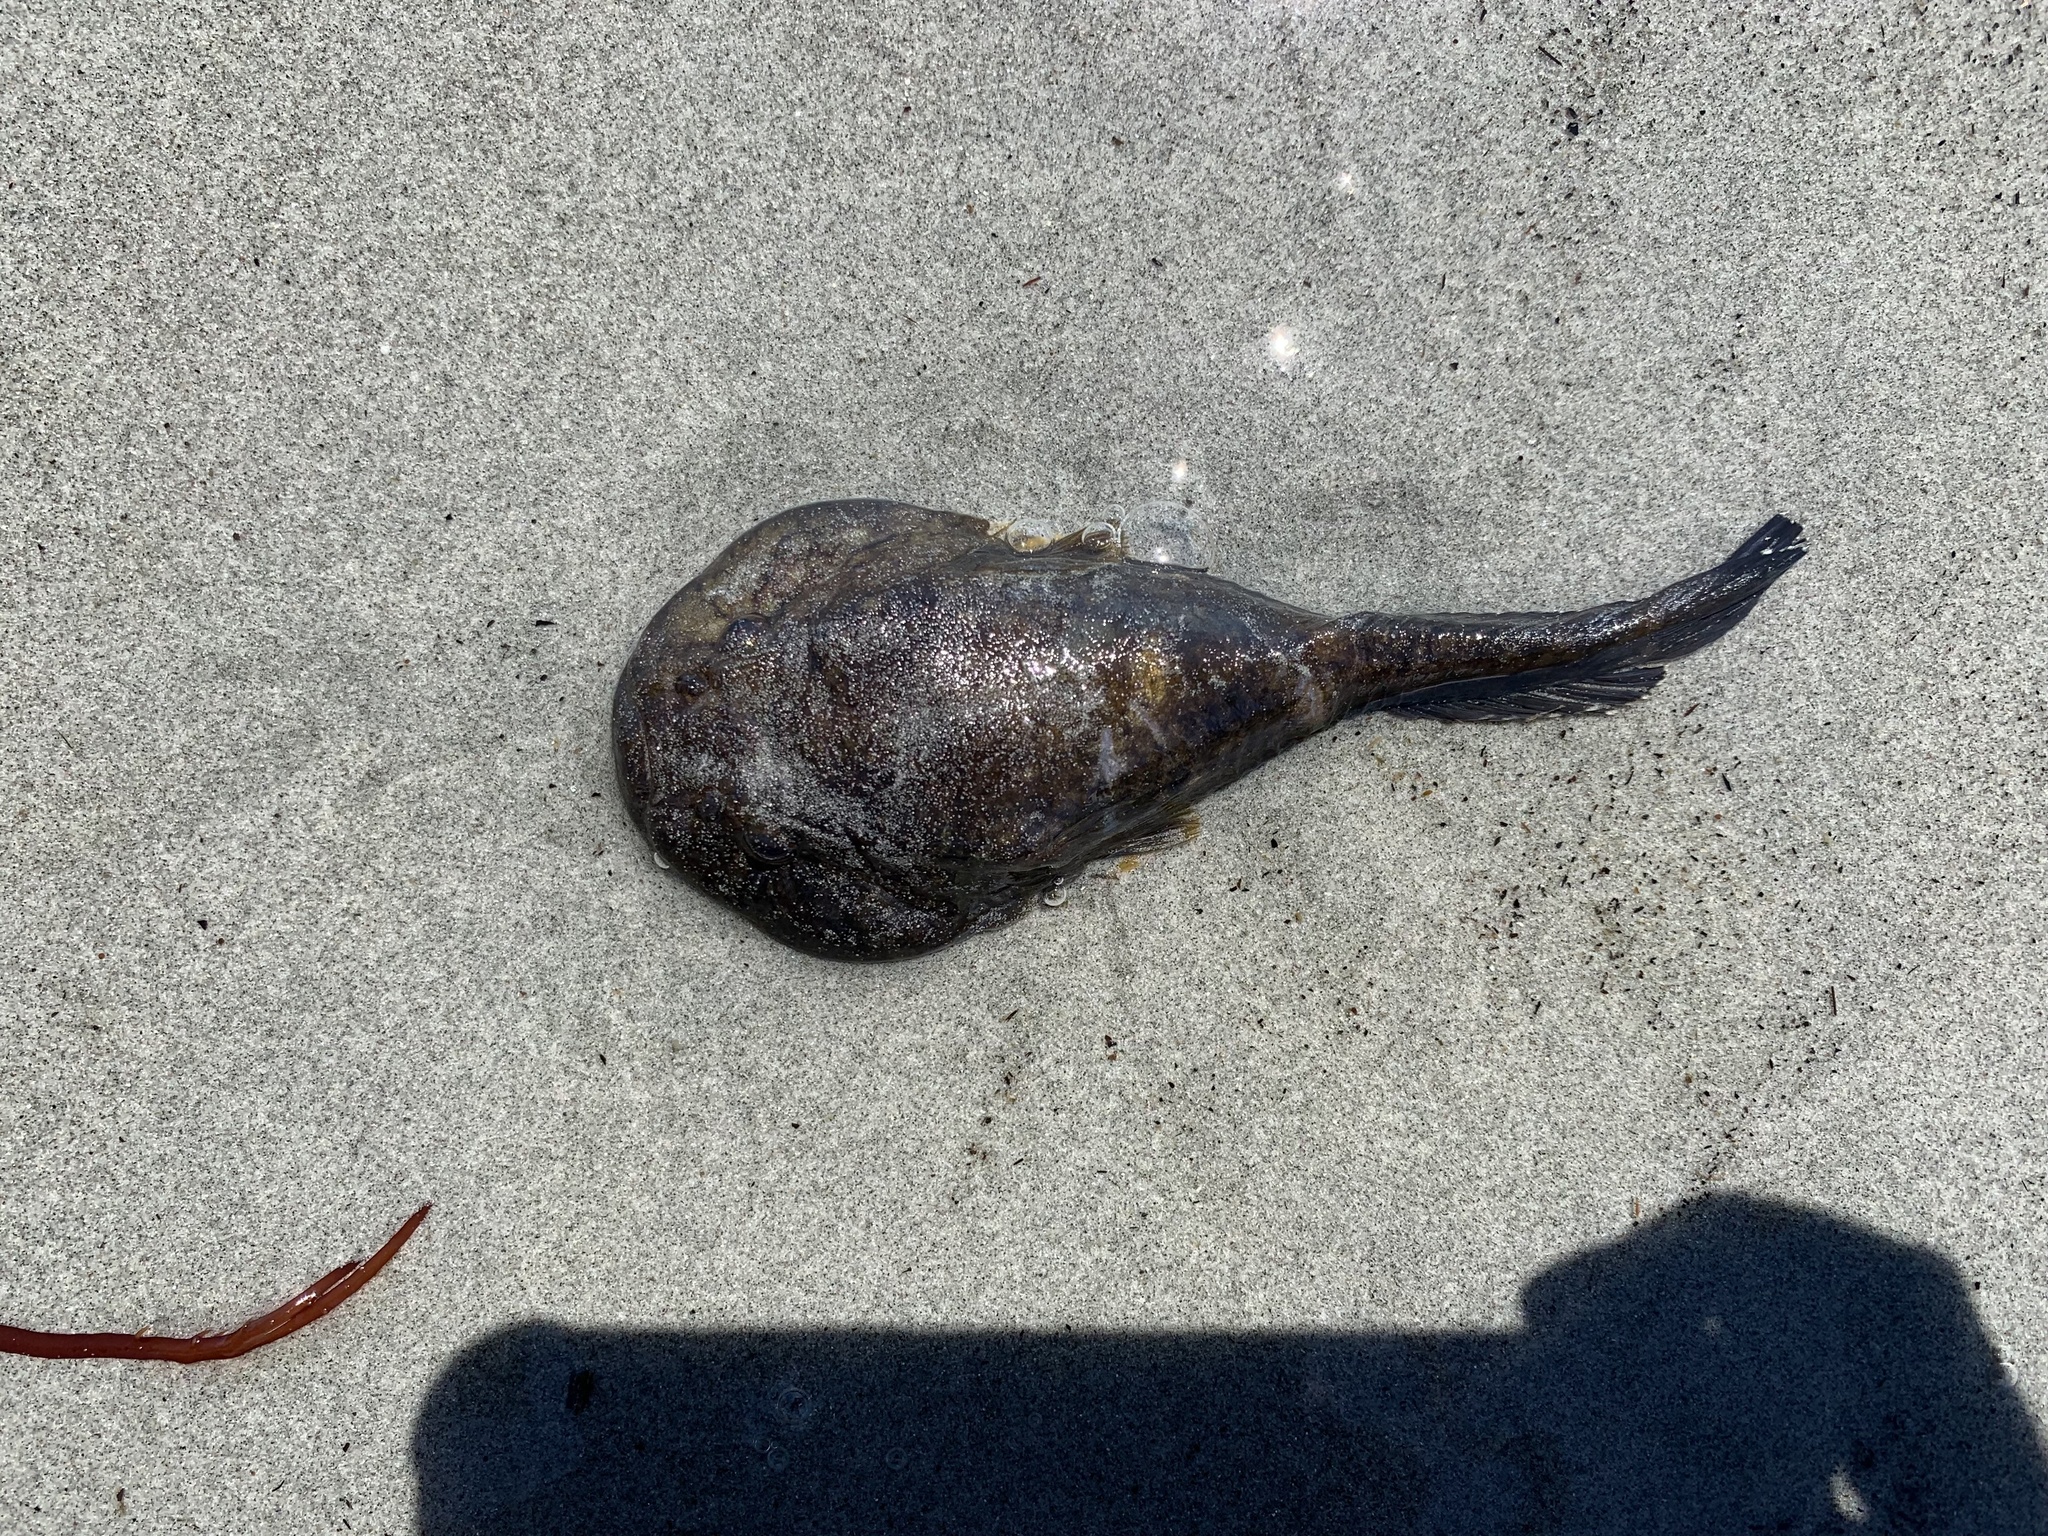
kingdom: Animalia
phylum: Chordata
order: Gobiesociformes
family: Gobiesocidae
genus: Gobiesox
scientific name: Gobiesox maeandricus
